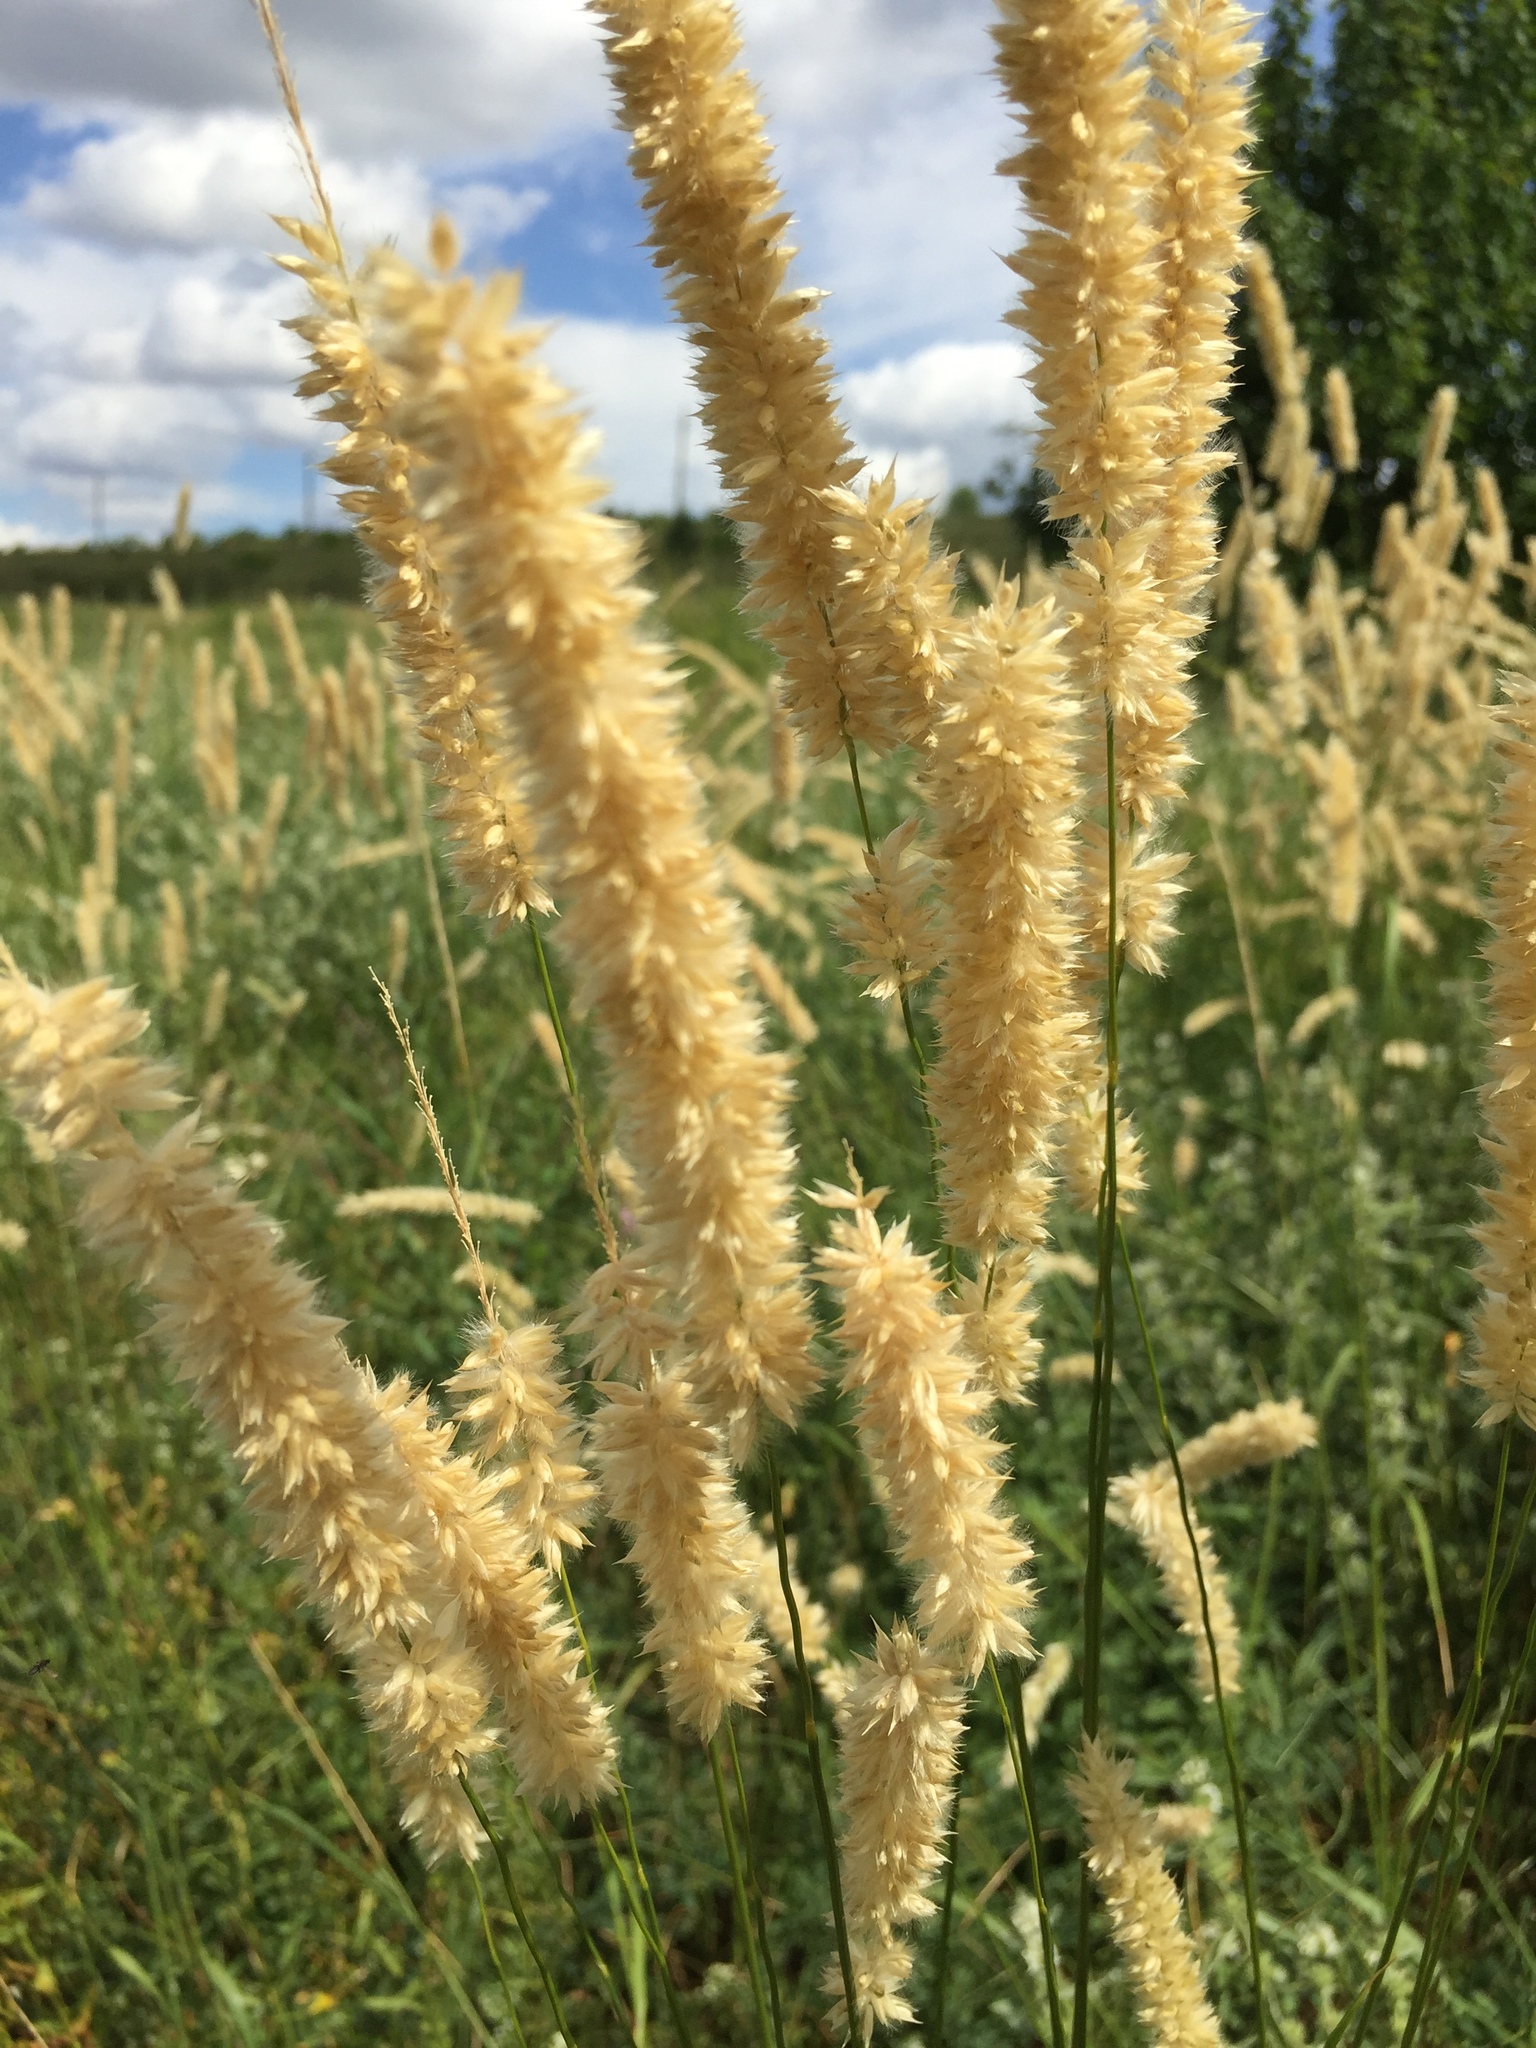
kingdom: Plantae
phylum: Tracheophyta
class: Liliopsida
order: Poales
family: Poaceae
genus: Melica
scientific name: Melica transsilvanica
